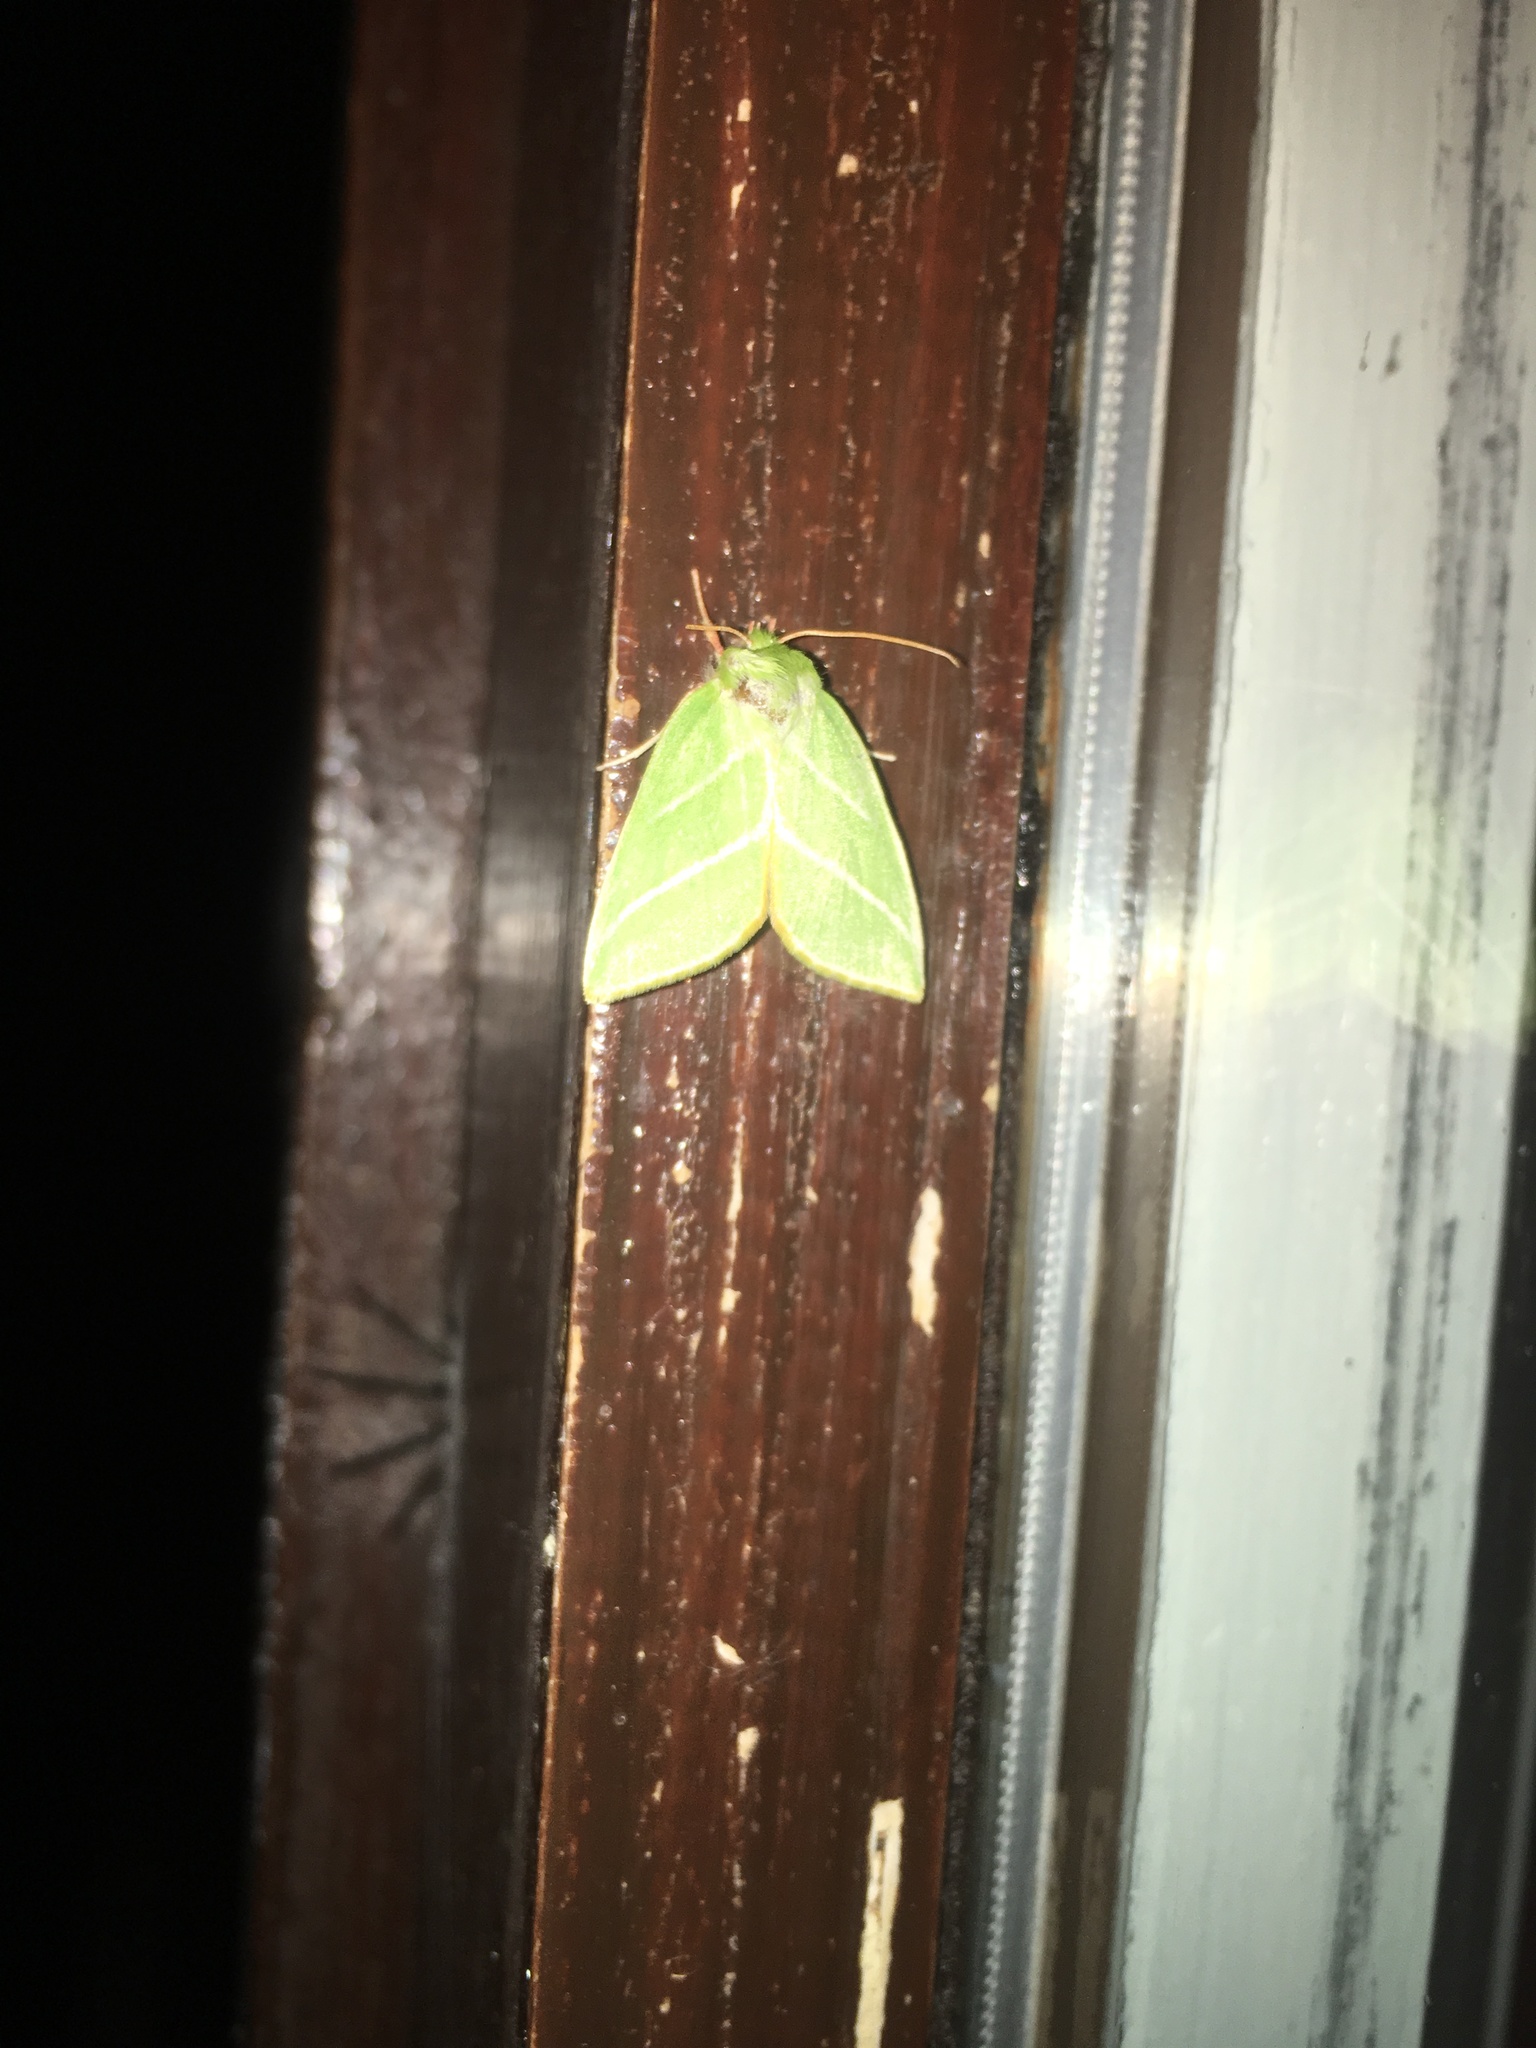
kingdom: Animalia
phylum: Arthropoda
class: Insecta
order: Lepidoptera
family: Nolidae
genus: Pseudoips
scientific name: Pseudoips prasinana
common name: Green silver-lines
